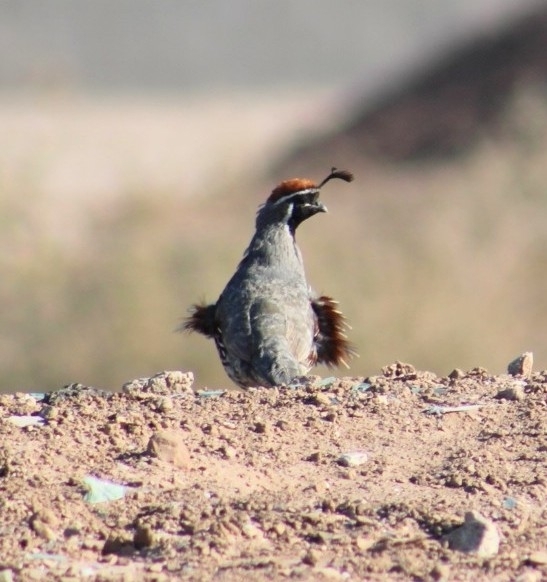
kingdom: Animalia
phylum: Chordata
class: Aves
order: Galliformes
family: Odontophoridae
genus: Callipepla
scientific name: Callipepla gambelii
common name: Gambel's quail
